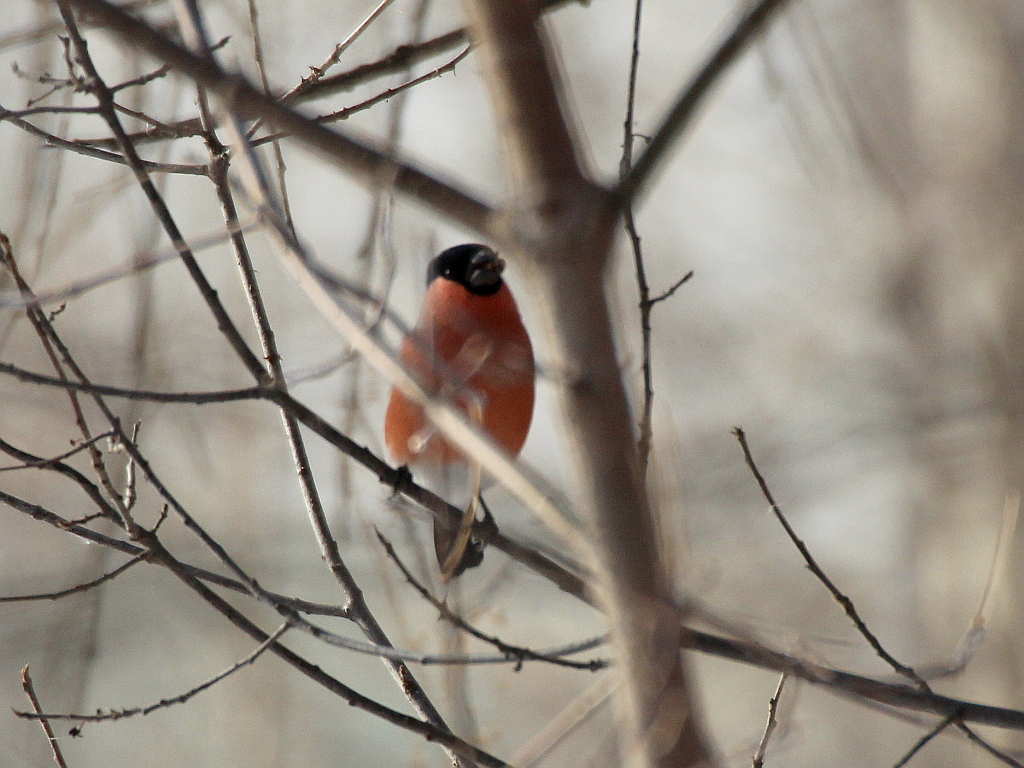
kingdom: Animalia
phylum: Chordata
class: Aves
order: Passeriformes
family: Fringillidae
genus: Pyrrhula
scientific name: Pyrrhula pyrrhula
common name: Eurasian bullfinch
